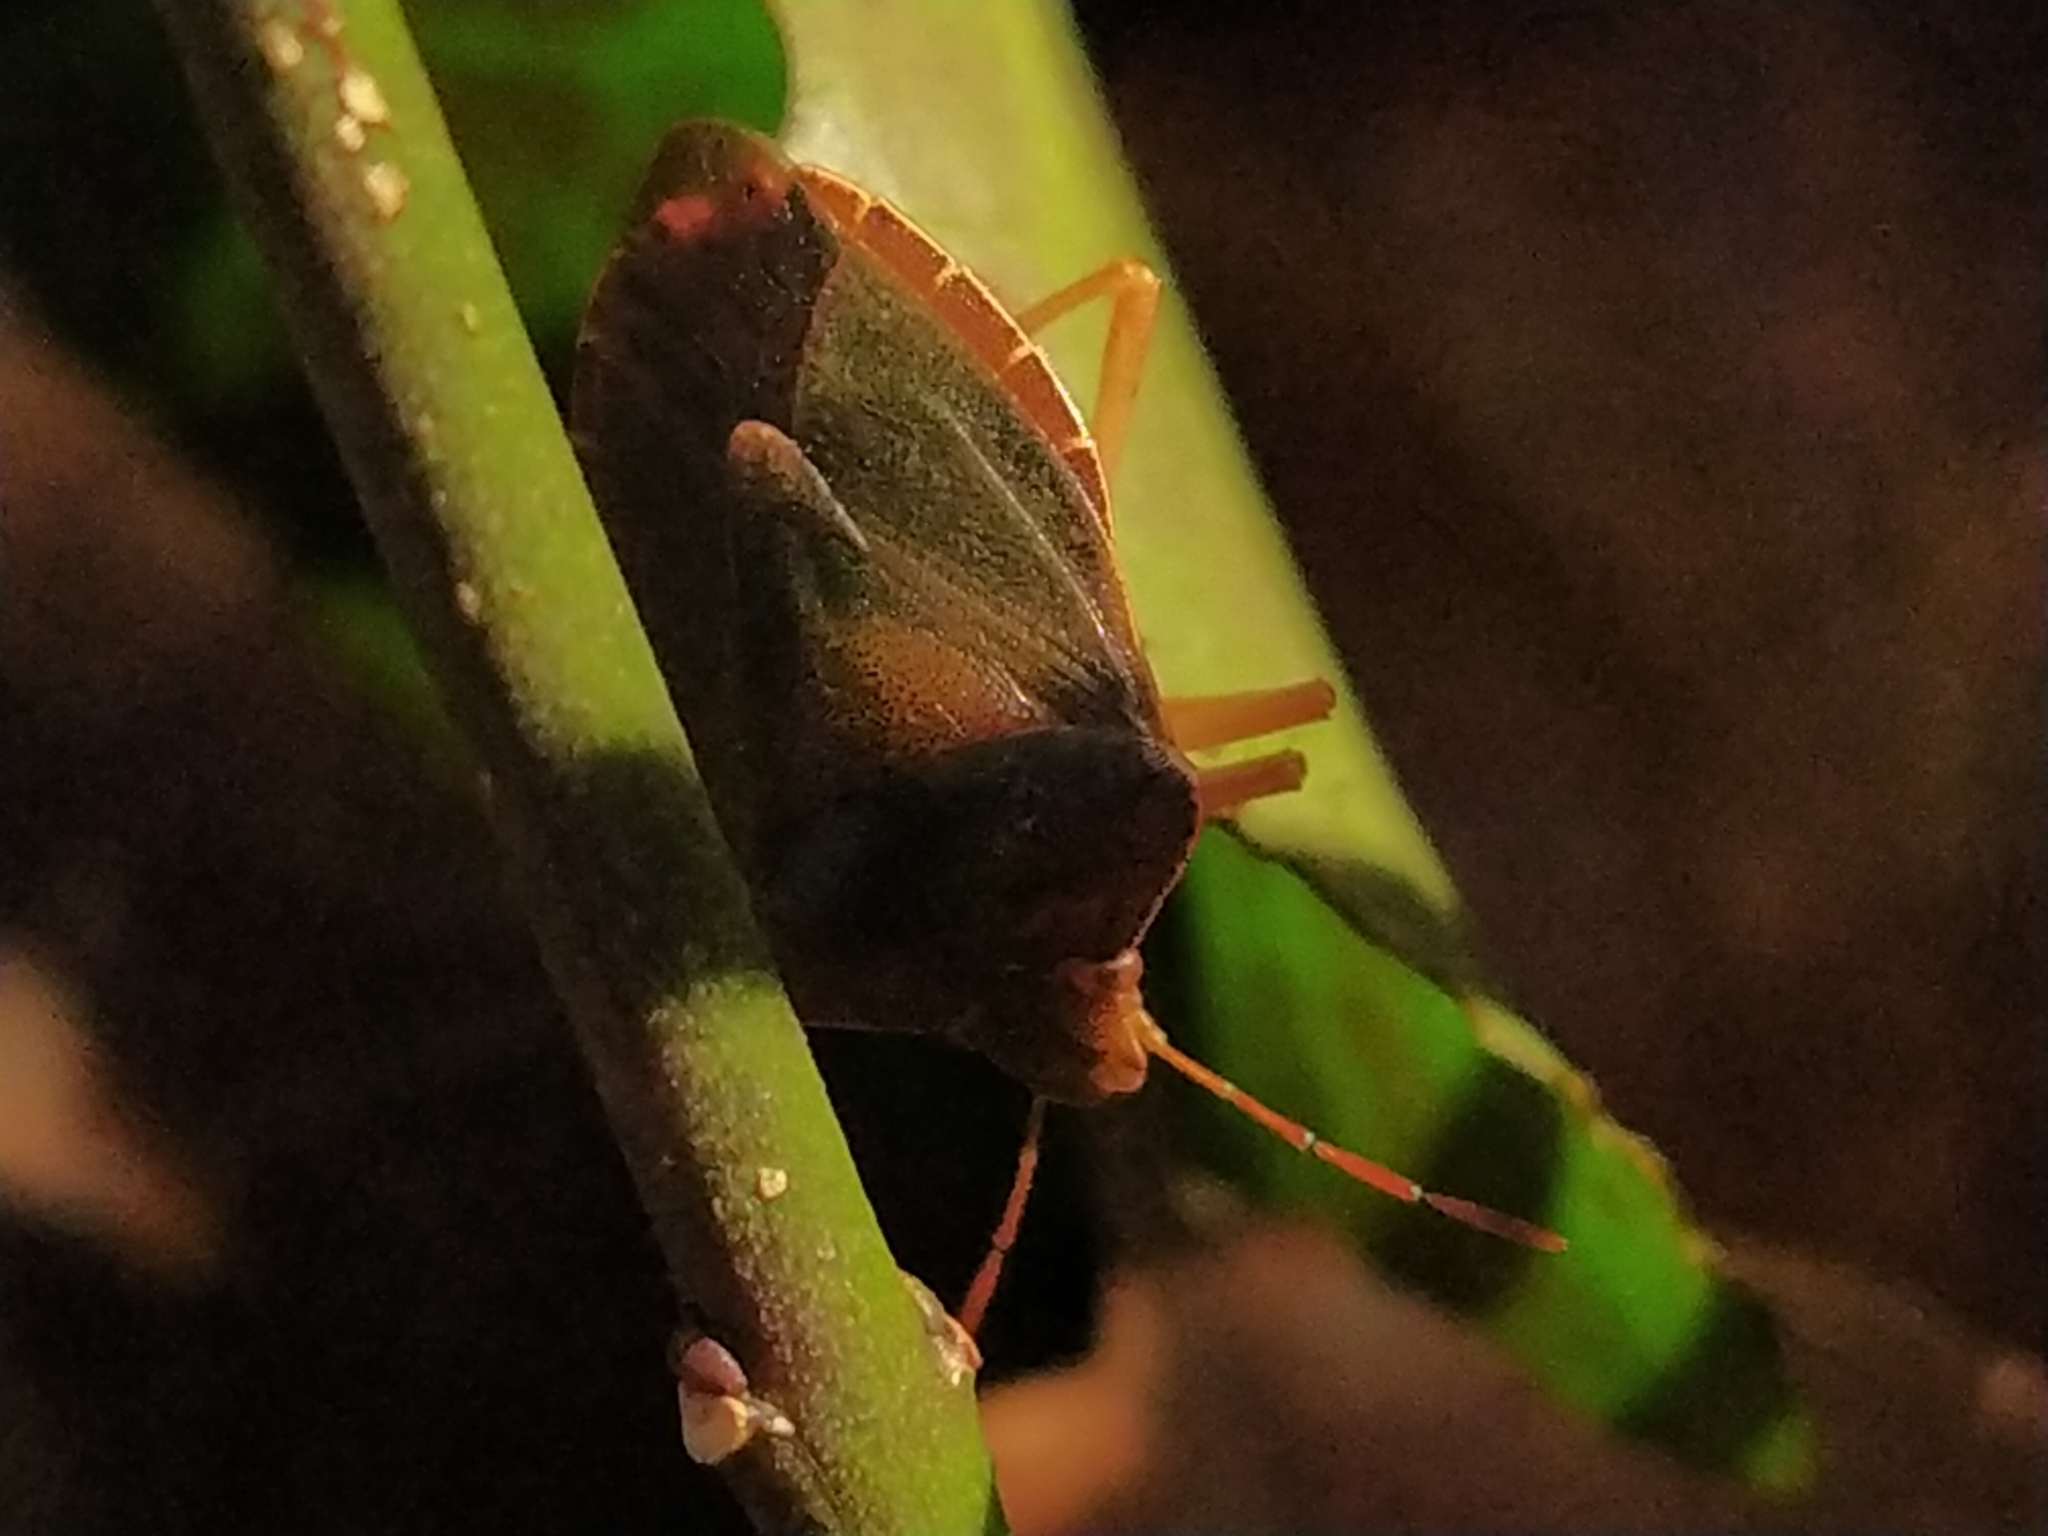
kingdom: Animalia
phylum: Arthropoda
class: Insecta
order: Hemiptera
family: Pentatomidae
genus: Palomena
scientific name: Palomena prasina
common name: Green shieldbug
